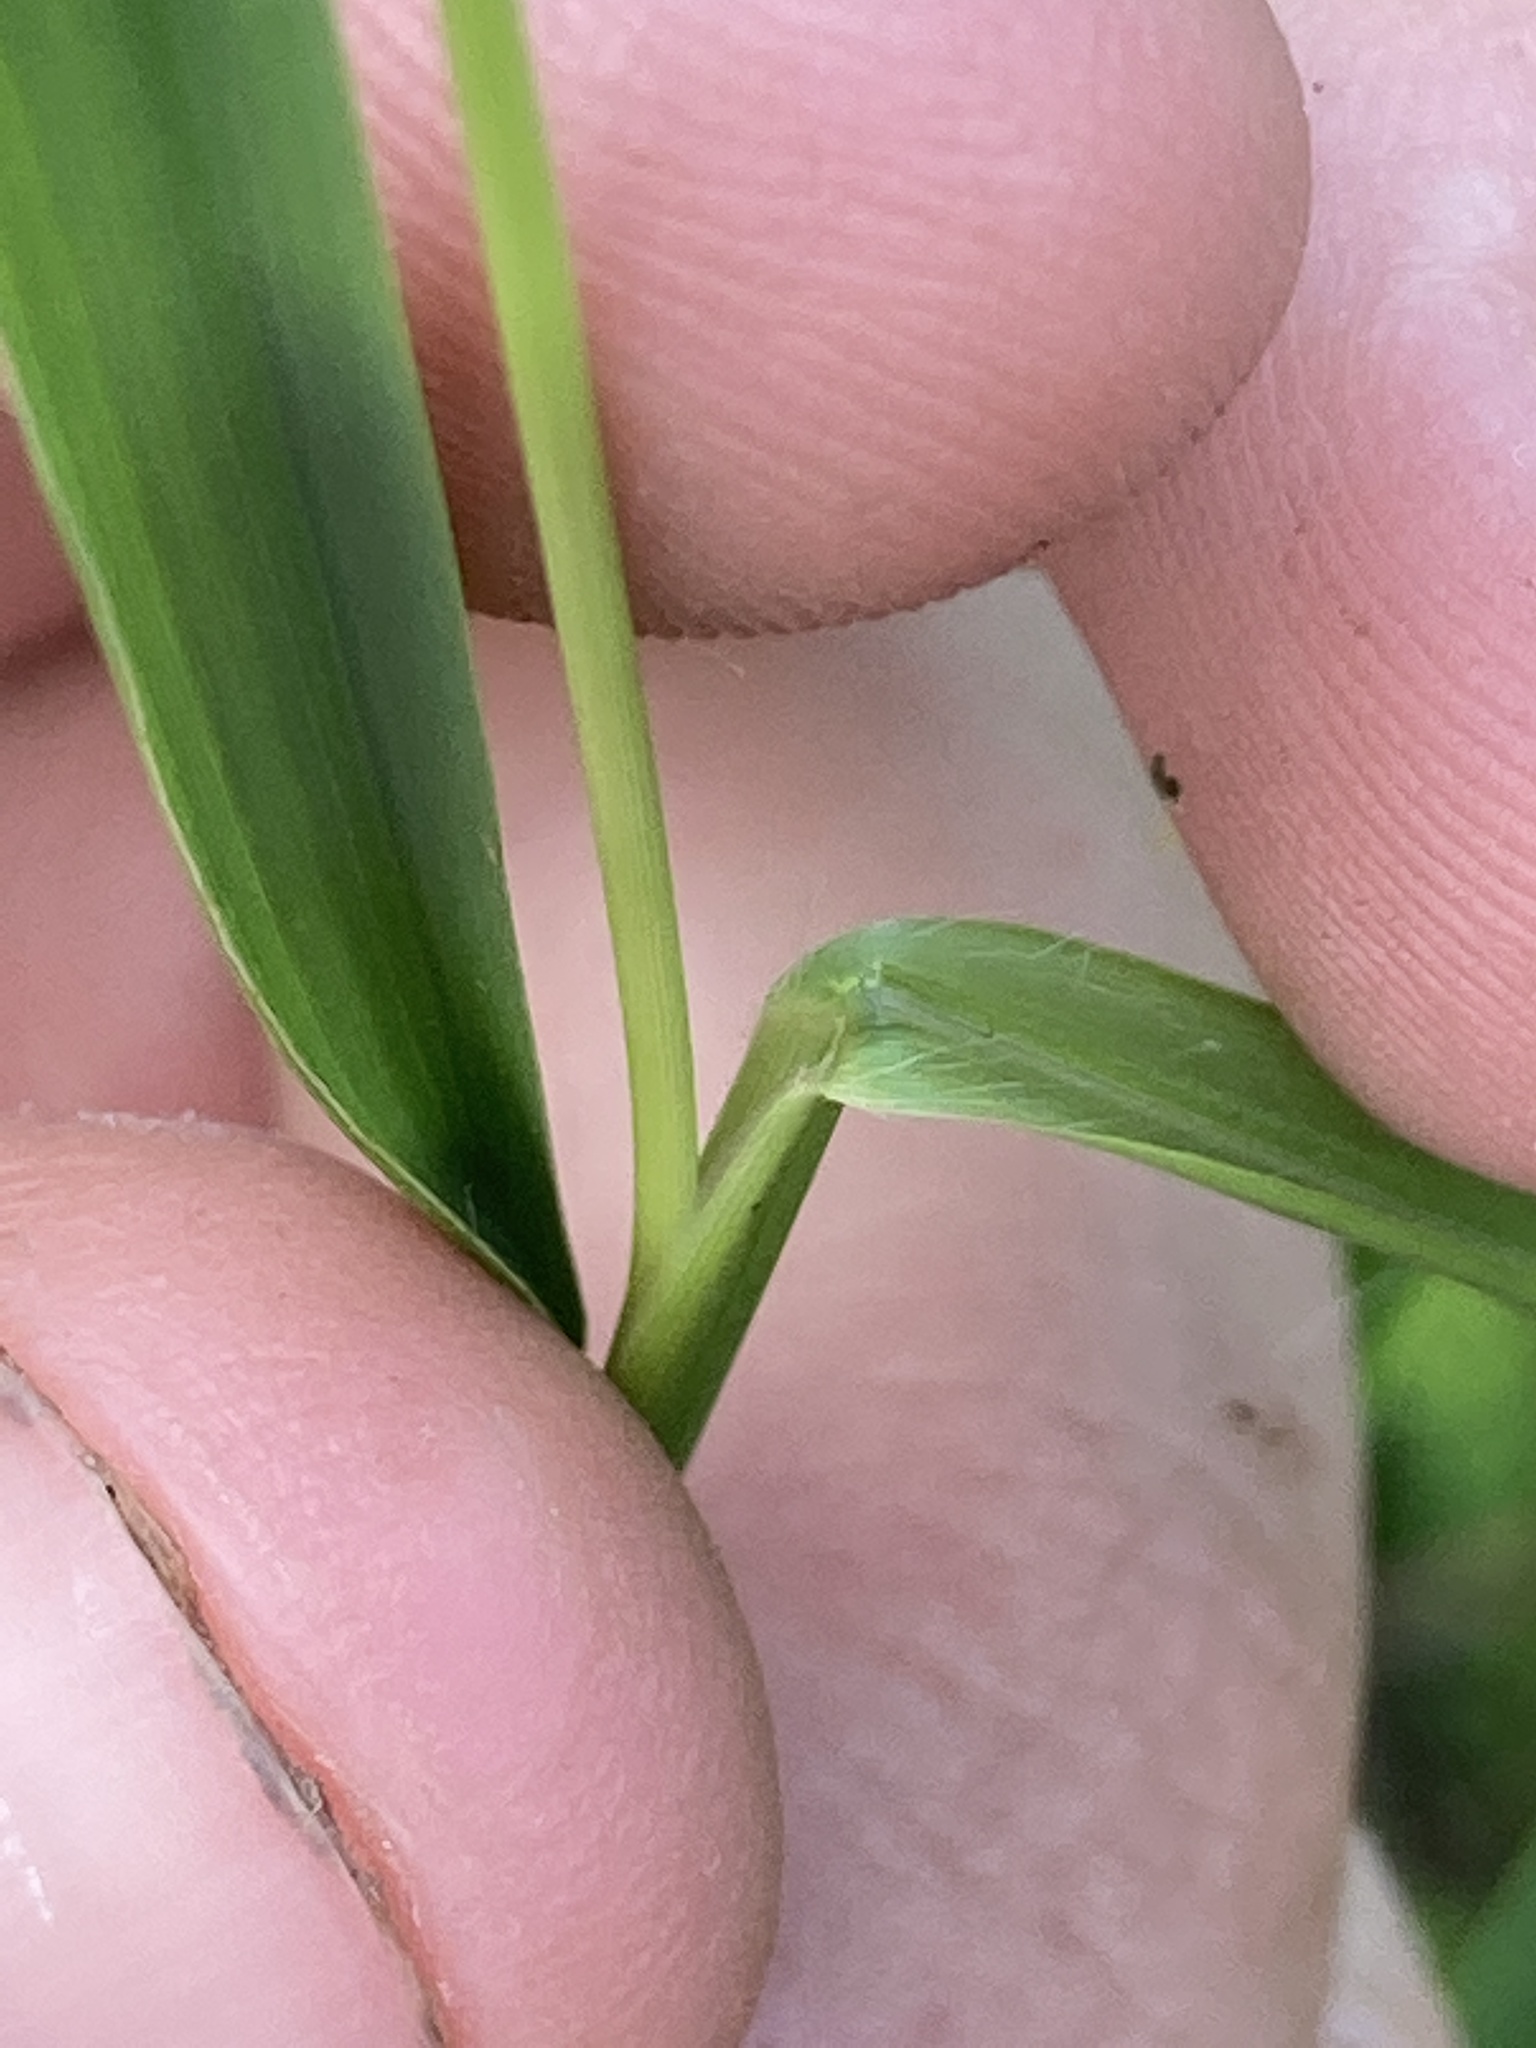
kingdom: Plantae
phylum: Tracheophyta
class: Liliopsida
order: Poales
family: Poaceae
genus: Steinchisma
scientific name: Steinchisma hians
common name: Gaping panic grass
